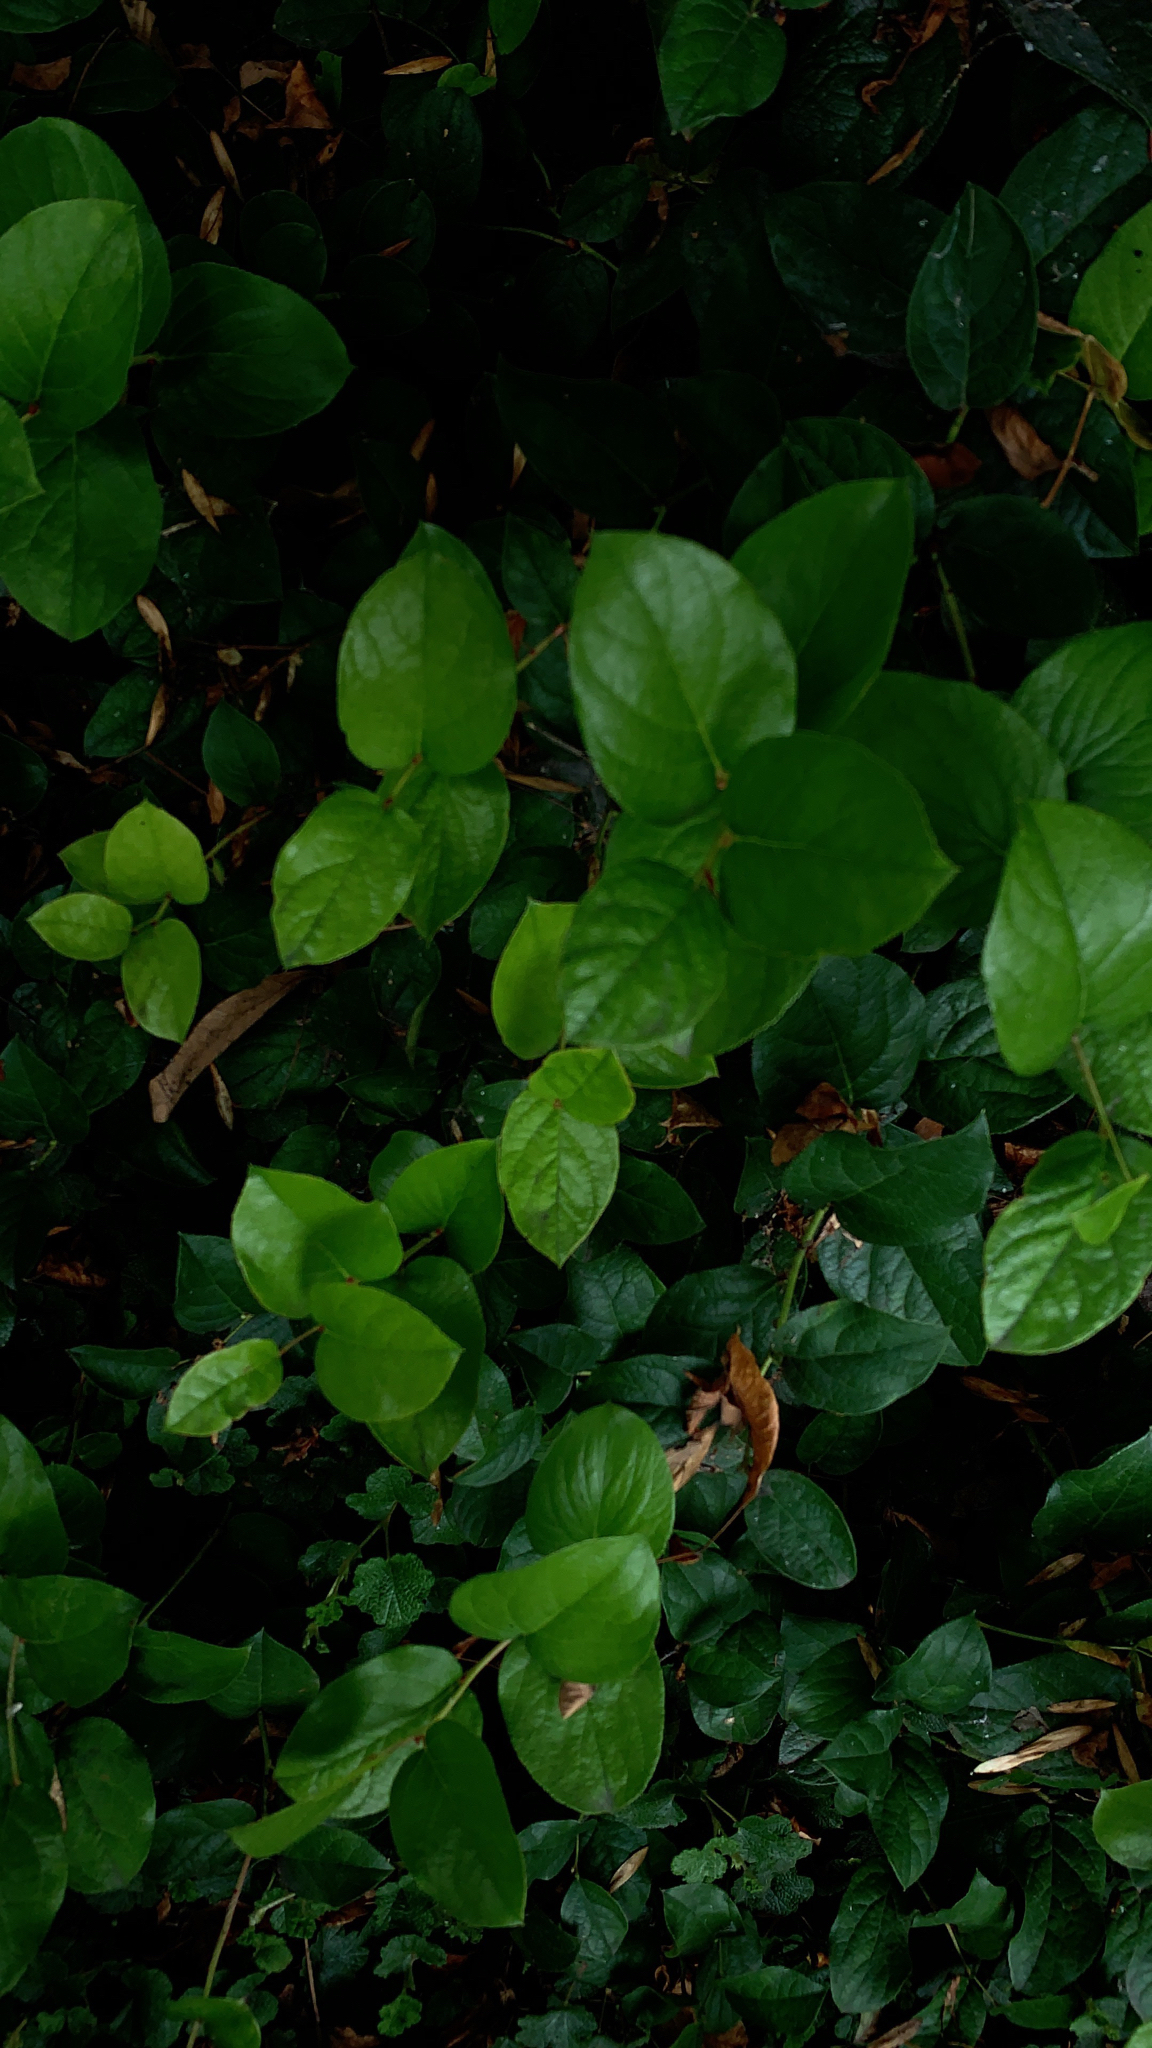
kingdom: Plantae
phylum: Tracheophyta
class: Magnoliopsida
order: Ericales
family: Ericaceae
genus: Gaultheria
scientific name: Gaultheria shallon
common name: Shallon
